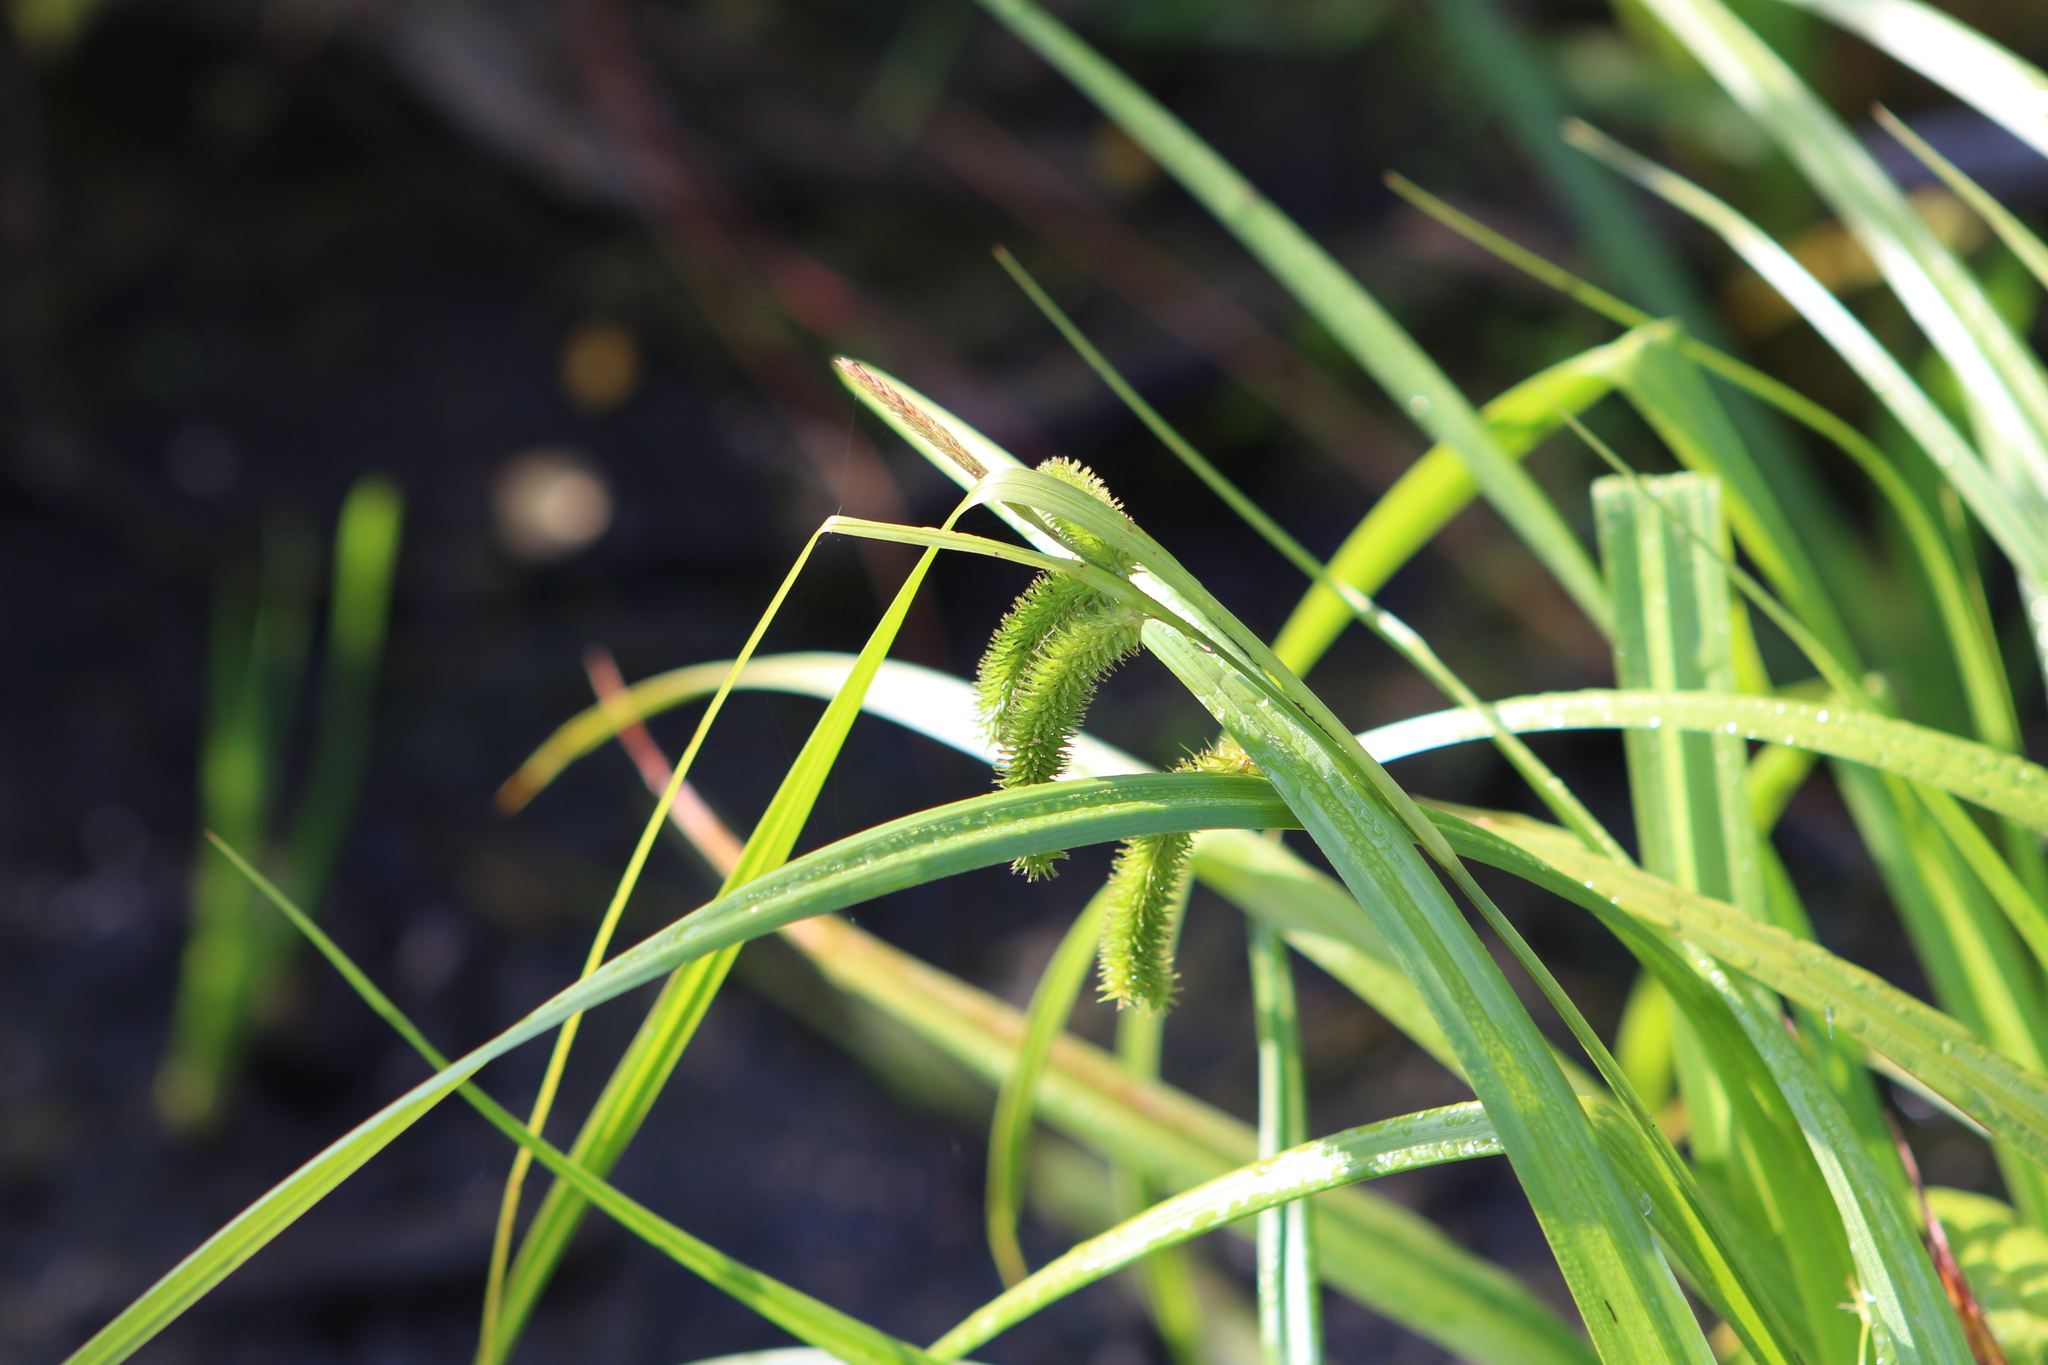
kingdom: Plantae
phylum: Tracheophyta
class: Liliopsida
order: Poales
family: Cyperaceae
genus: Carex
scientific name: Carex pseudocyperus
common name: Cyperus sedge
